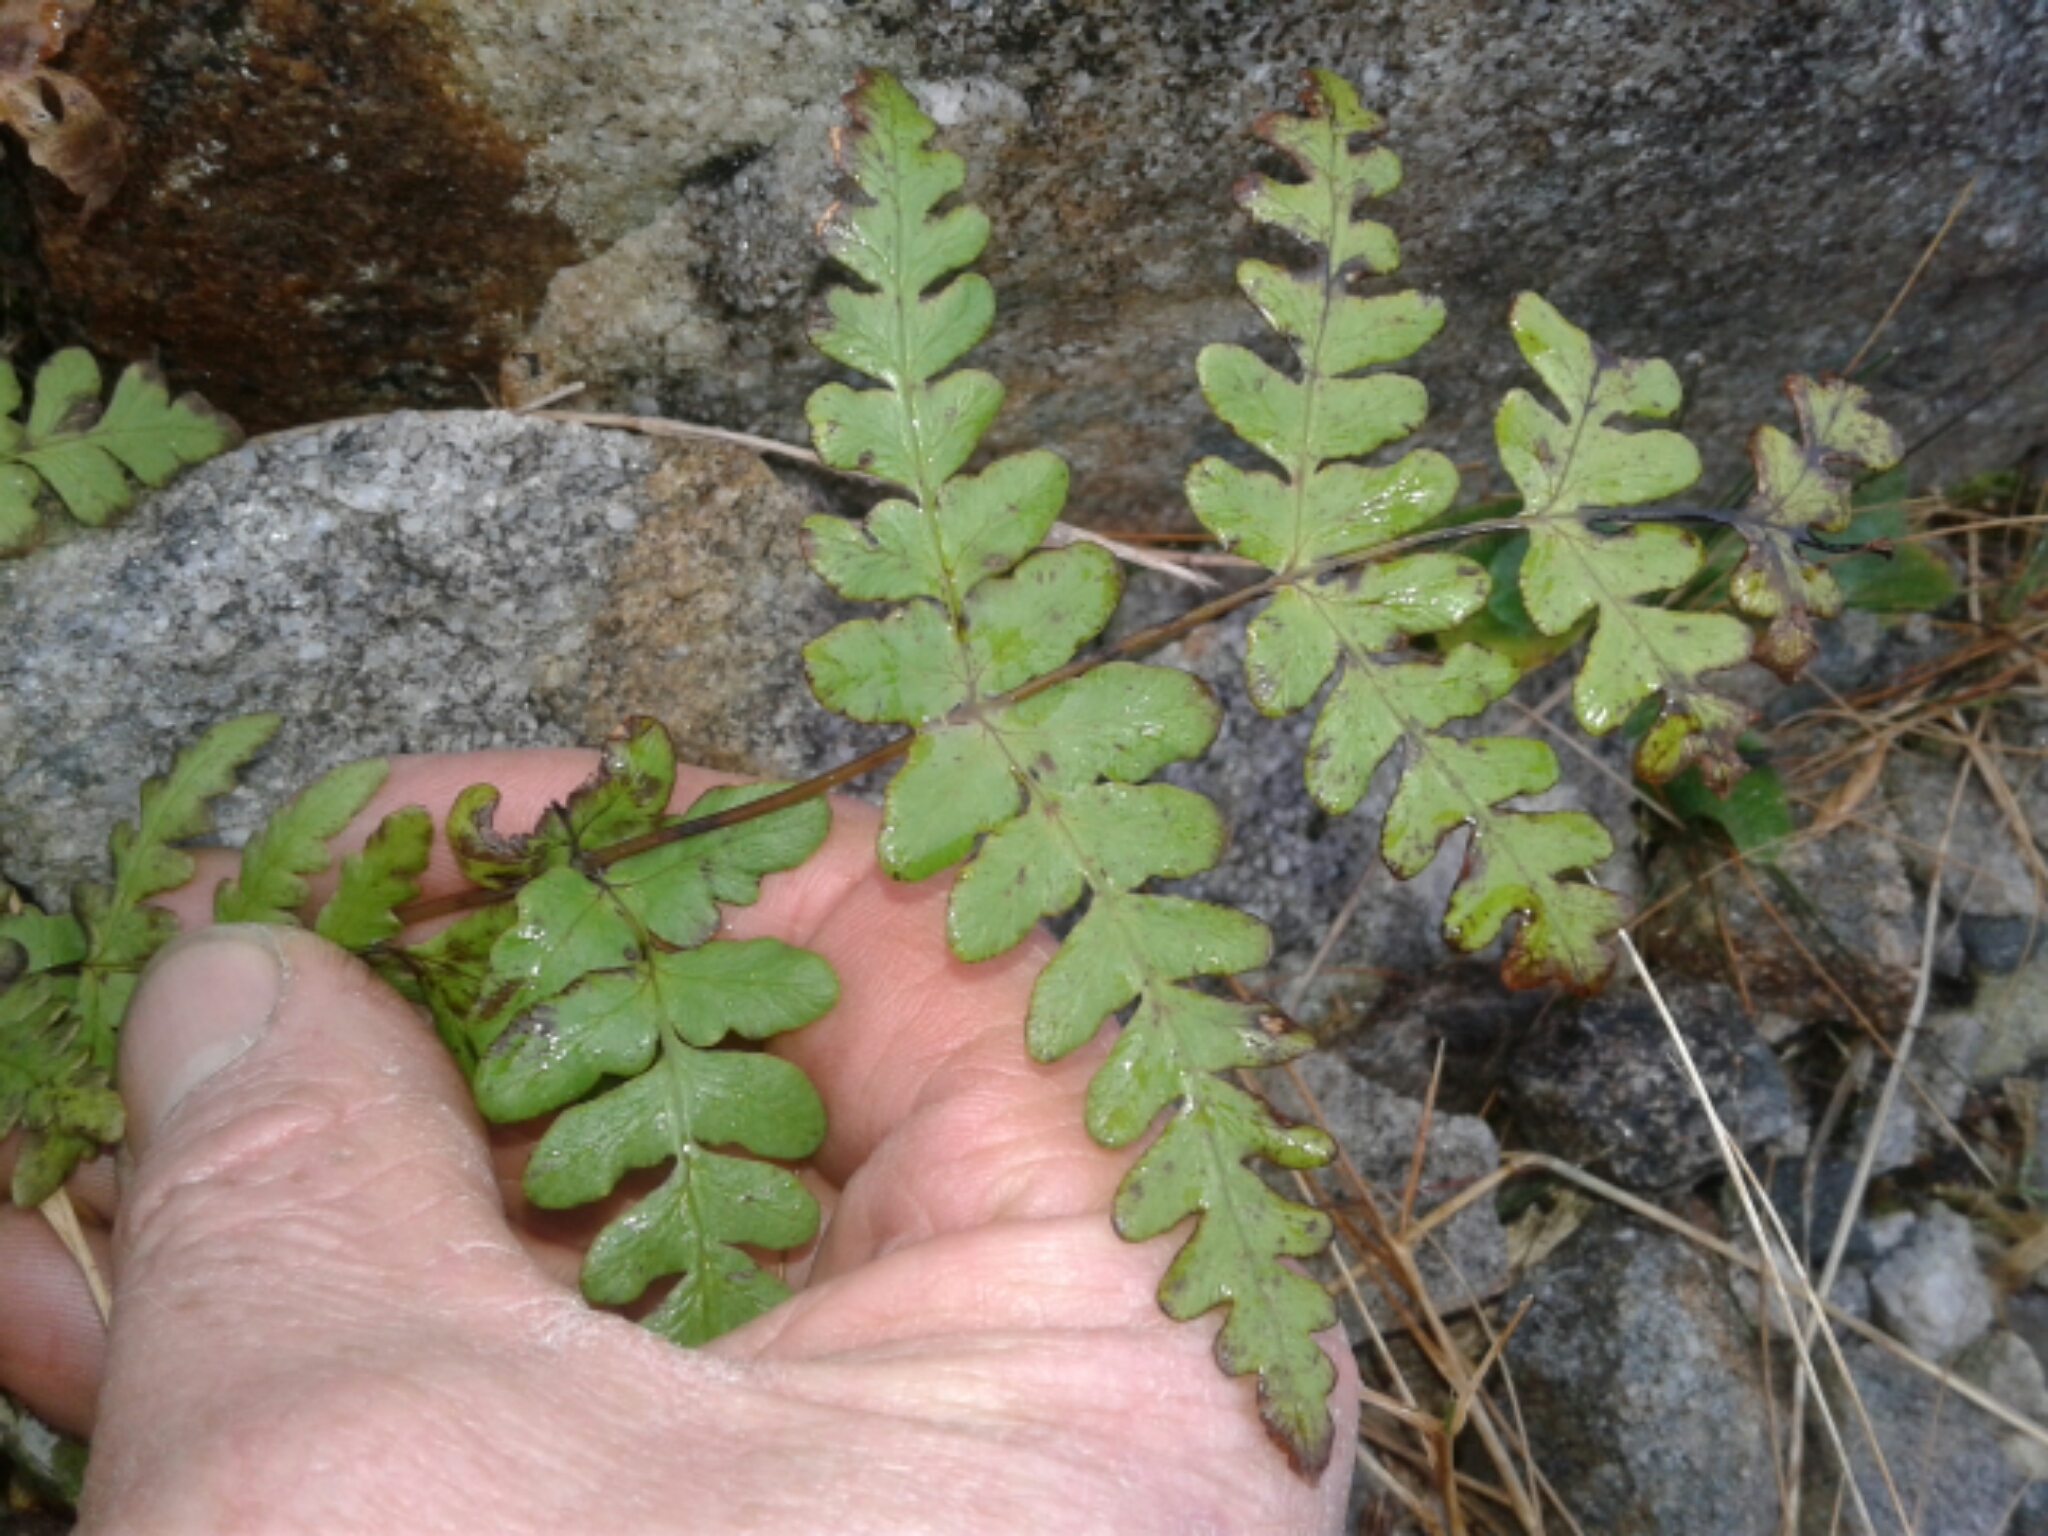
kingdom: Plantae
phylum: Tracheophyta
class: Polypodiopsida
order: Polypodiales
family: Dennstaedtiaceae
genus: Histiopteris
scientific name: Histiopteris incisa
